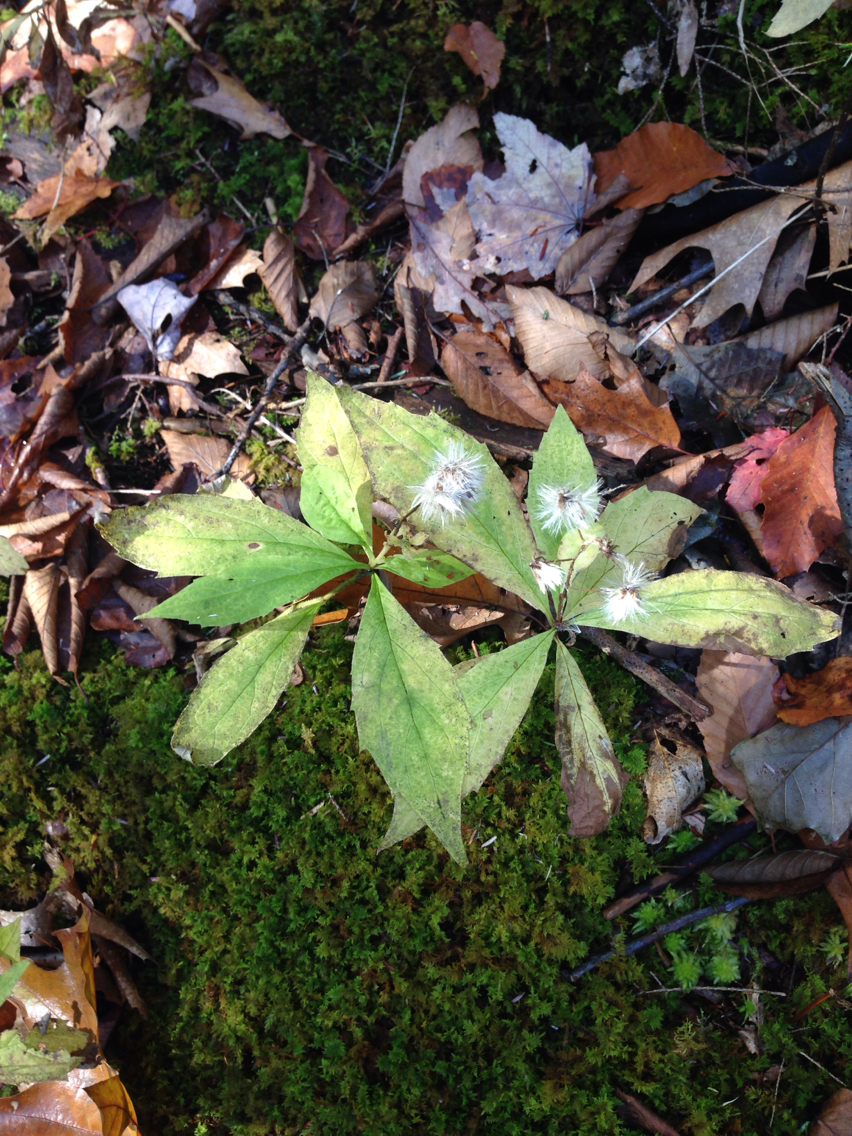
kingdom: Plantae
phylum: Tracheophyta
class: Magnoliopsida
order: Asterales
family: Asteraceae
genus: Oclemena
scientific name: Oclemena acuminata
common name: Mountain aster
